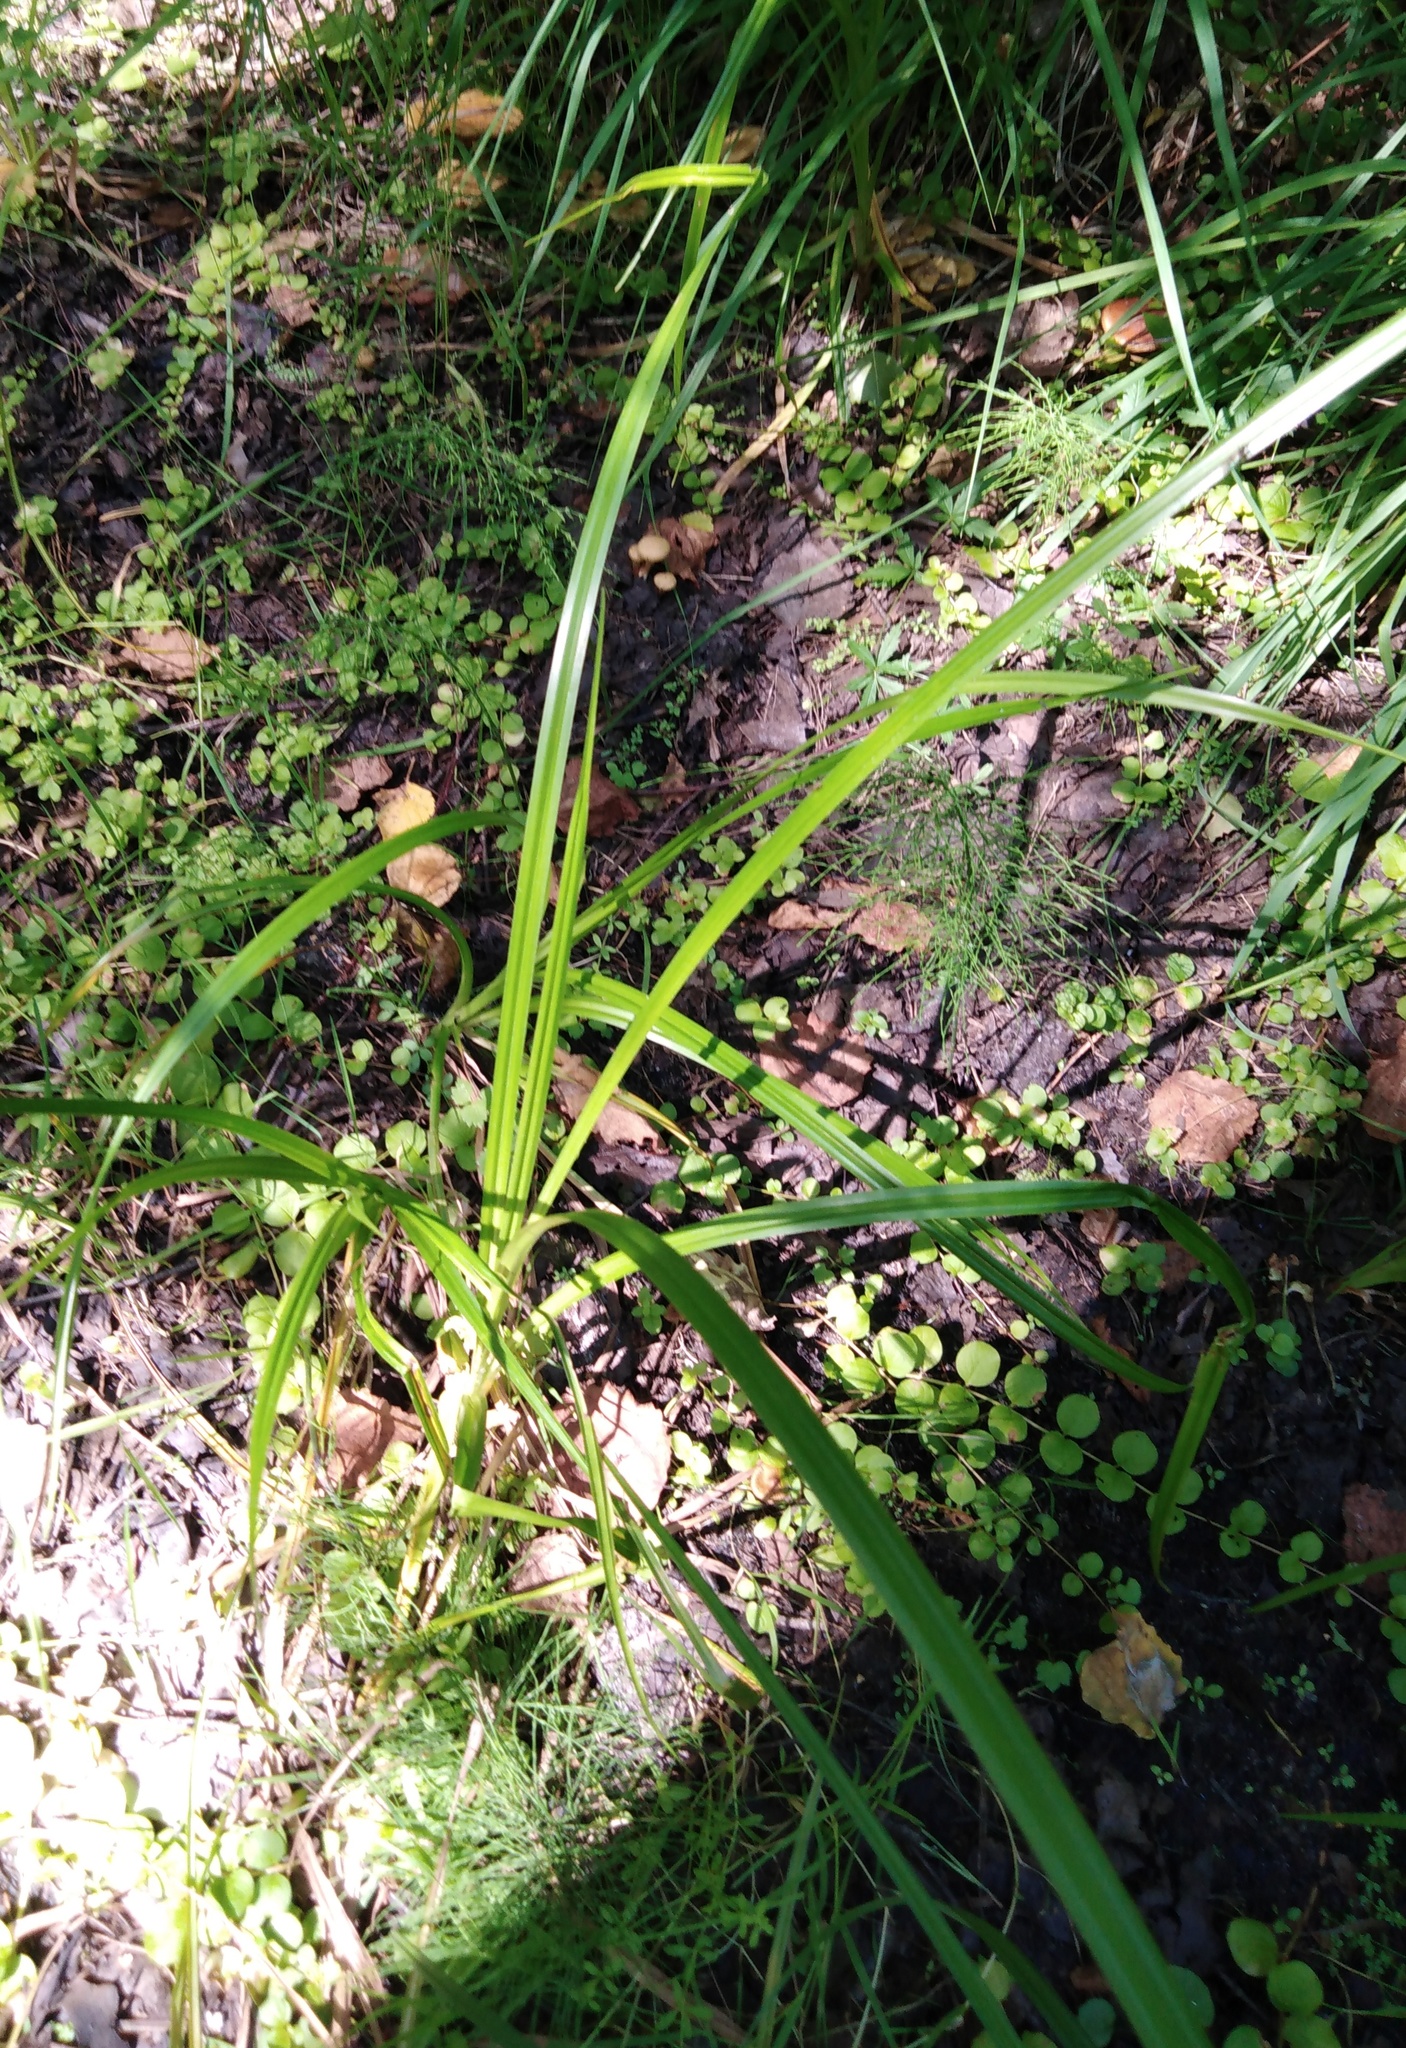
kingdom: Plantae
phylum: Tracheophyta
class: Liliopsida
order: Poales
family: Cyperaceae
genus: Scirpus
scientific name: Scirpus sylvaticus
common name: Wood club-rush
